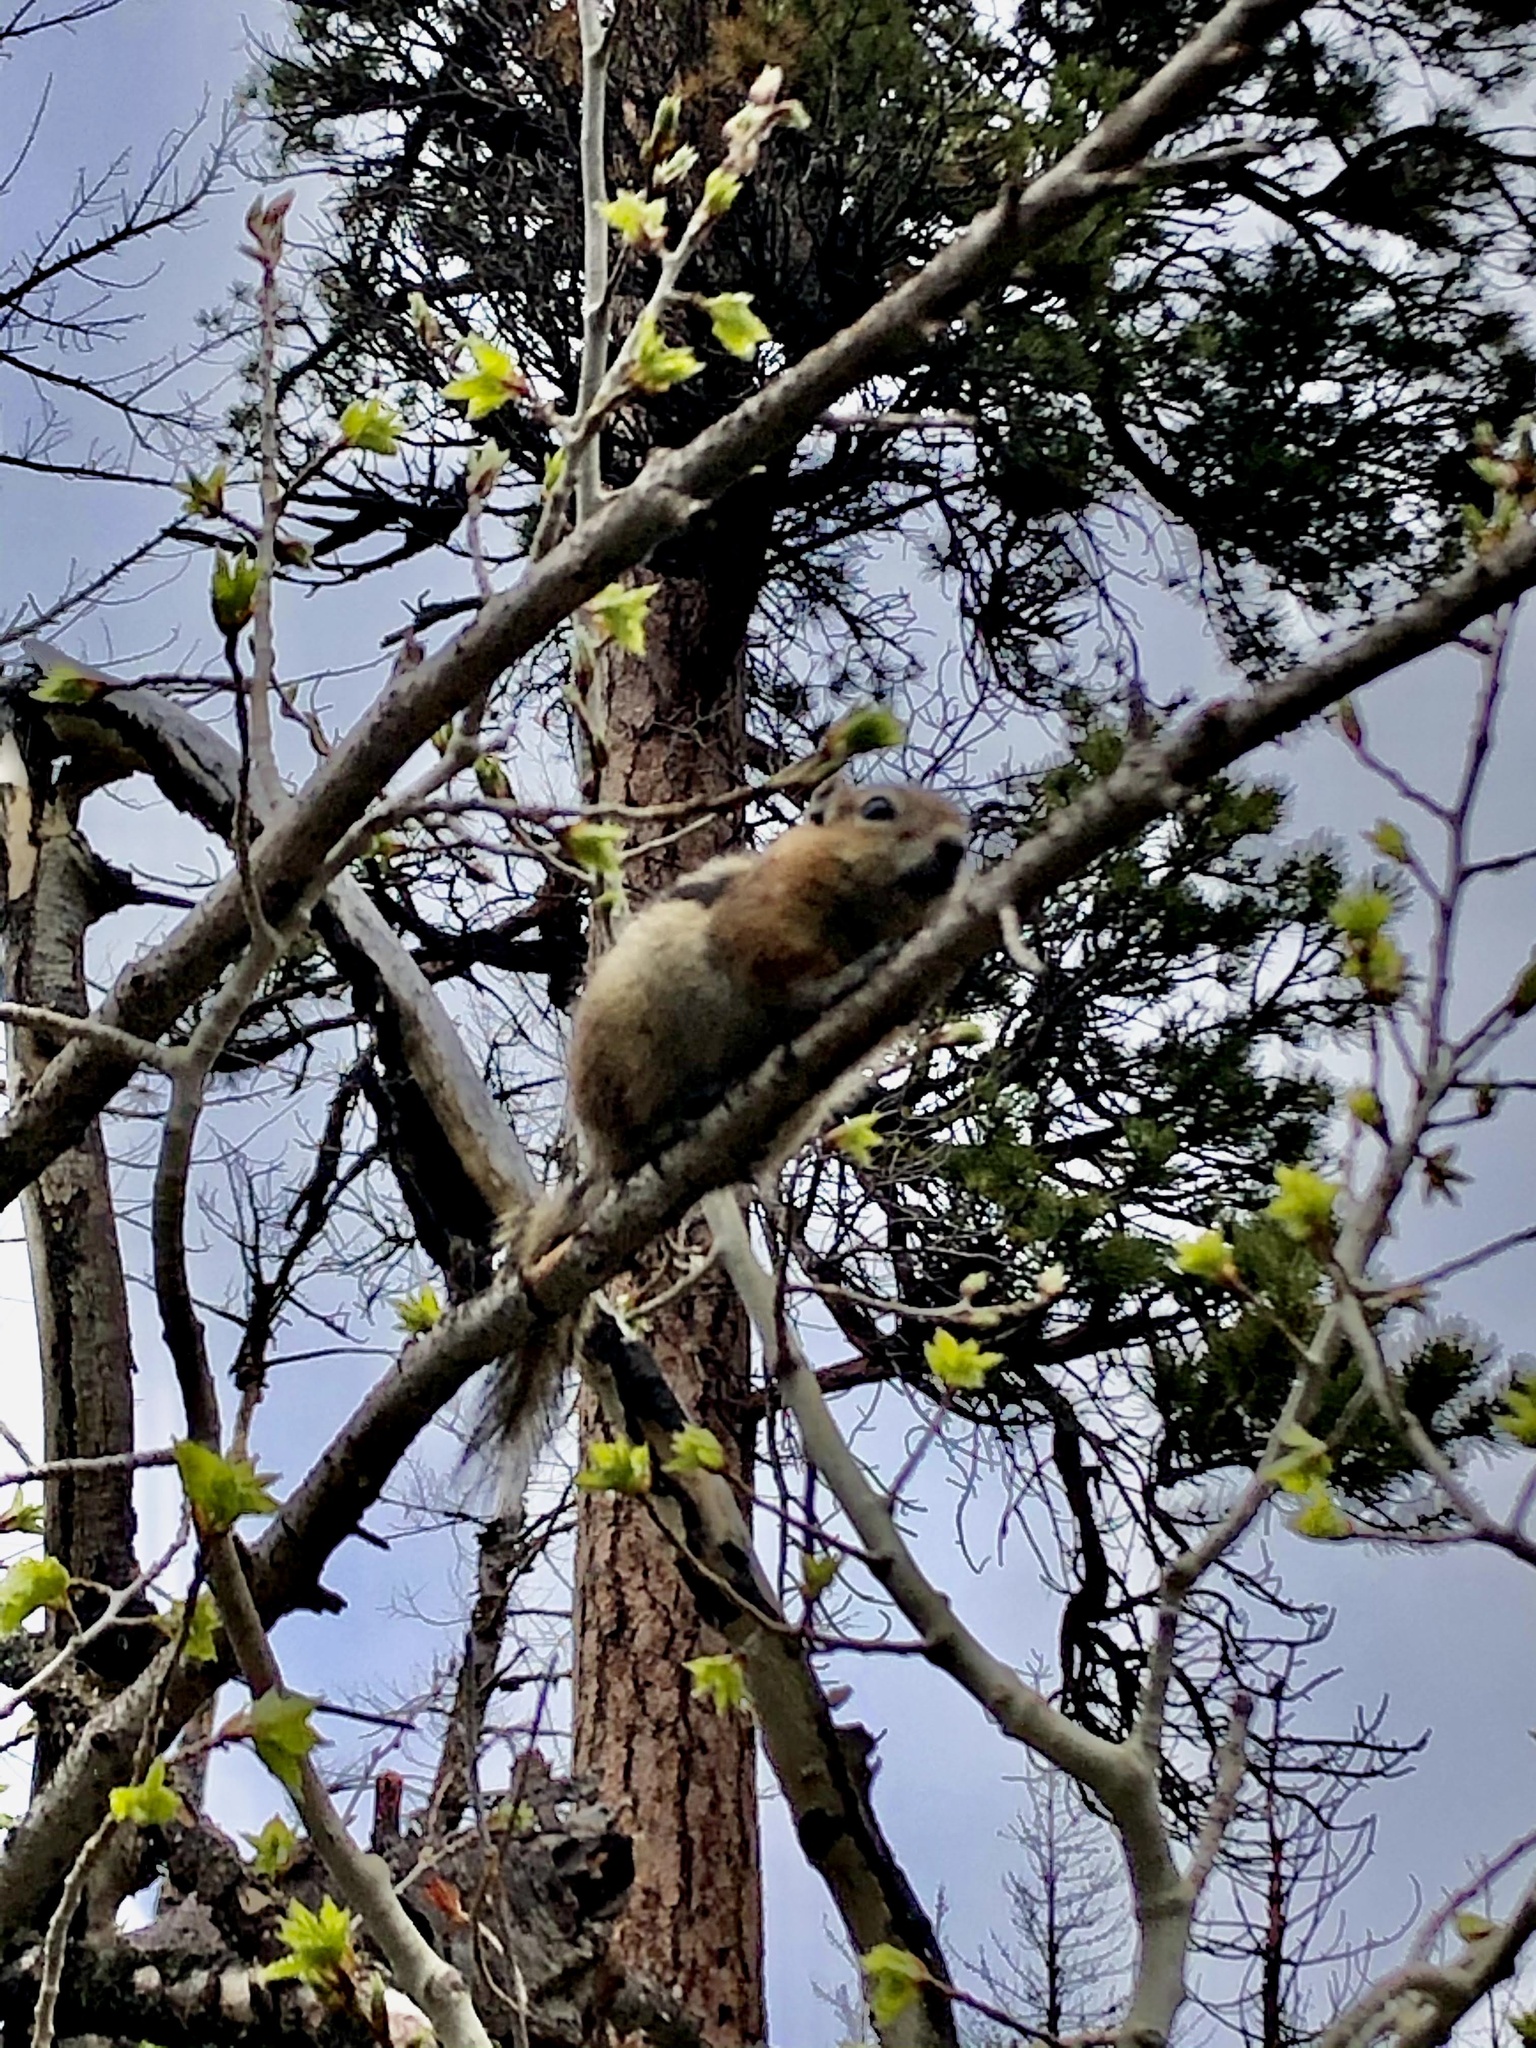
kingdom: Animalia
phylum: Chordata
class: Mammalia
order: Rodentia
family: Sciuridae
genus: Callospermophilus
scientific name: Callospermophilus lateralis
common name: Golden-mantled ground squirrel
